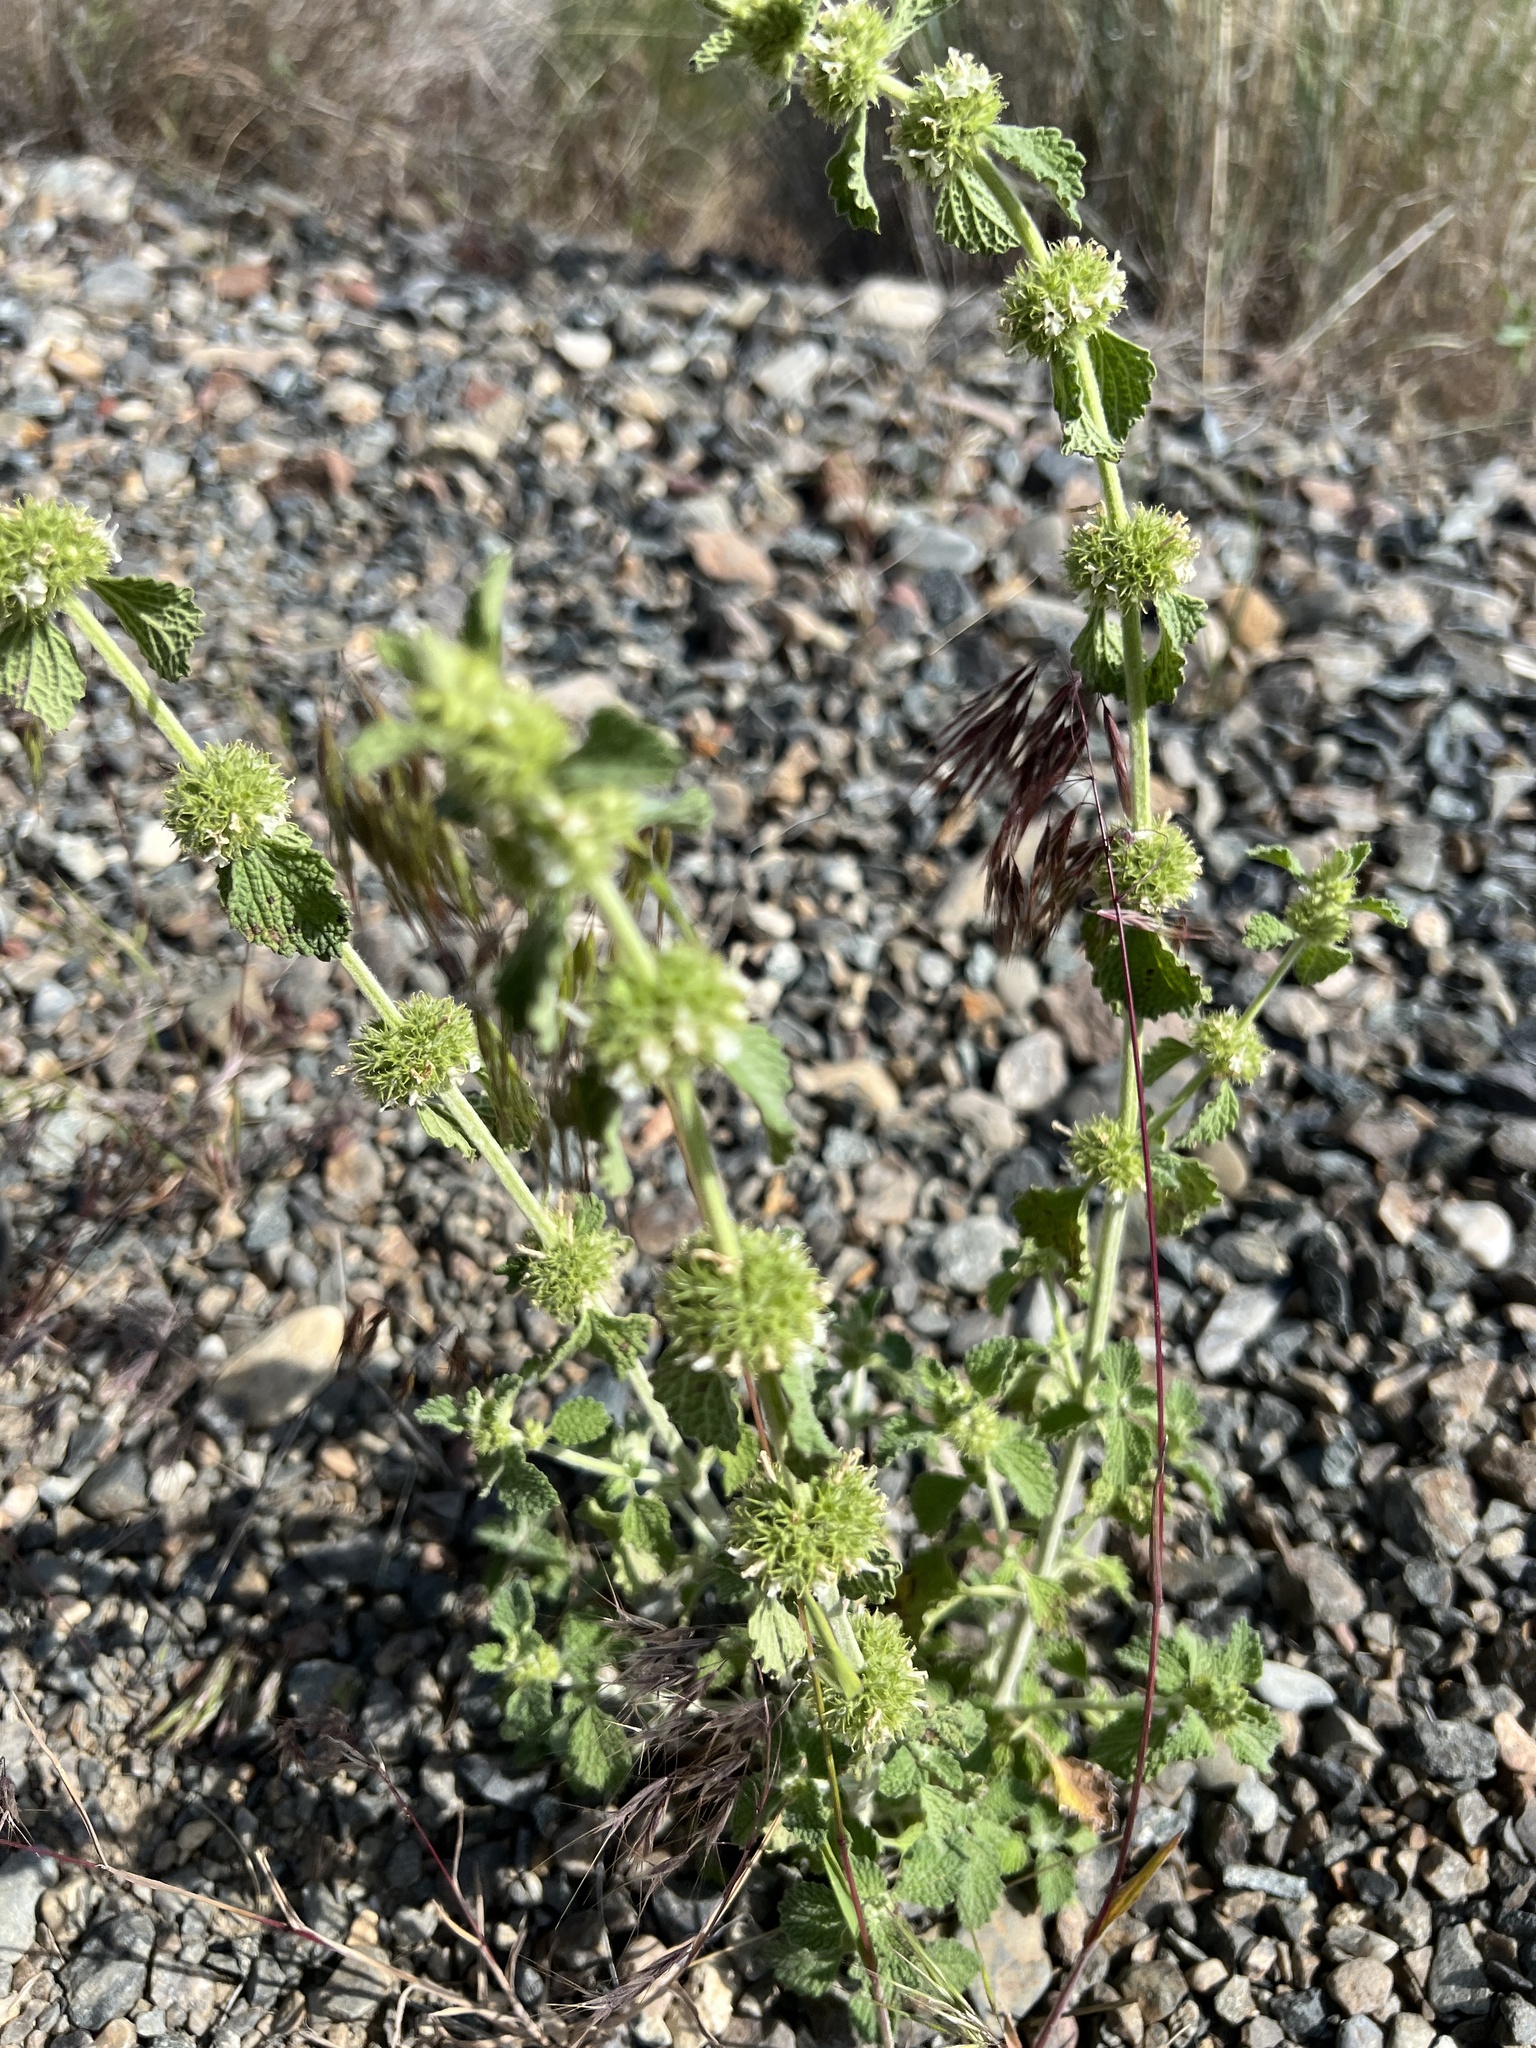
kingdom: Plantae
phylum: Tracheophyta
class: Magnoliopsida
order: Lamiales
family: Lamiaceae
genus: Marrubium
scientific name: Marrubium vulgare
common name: Horehound
